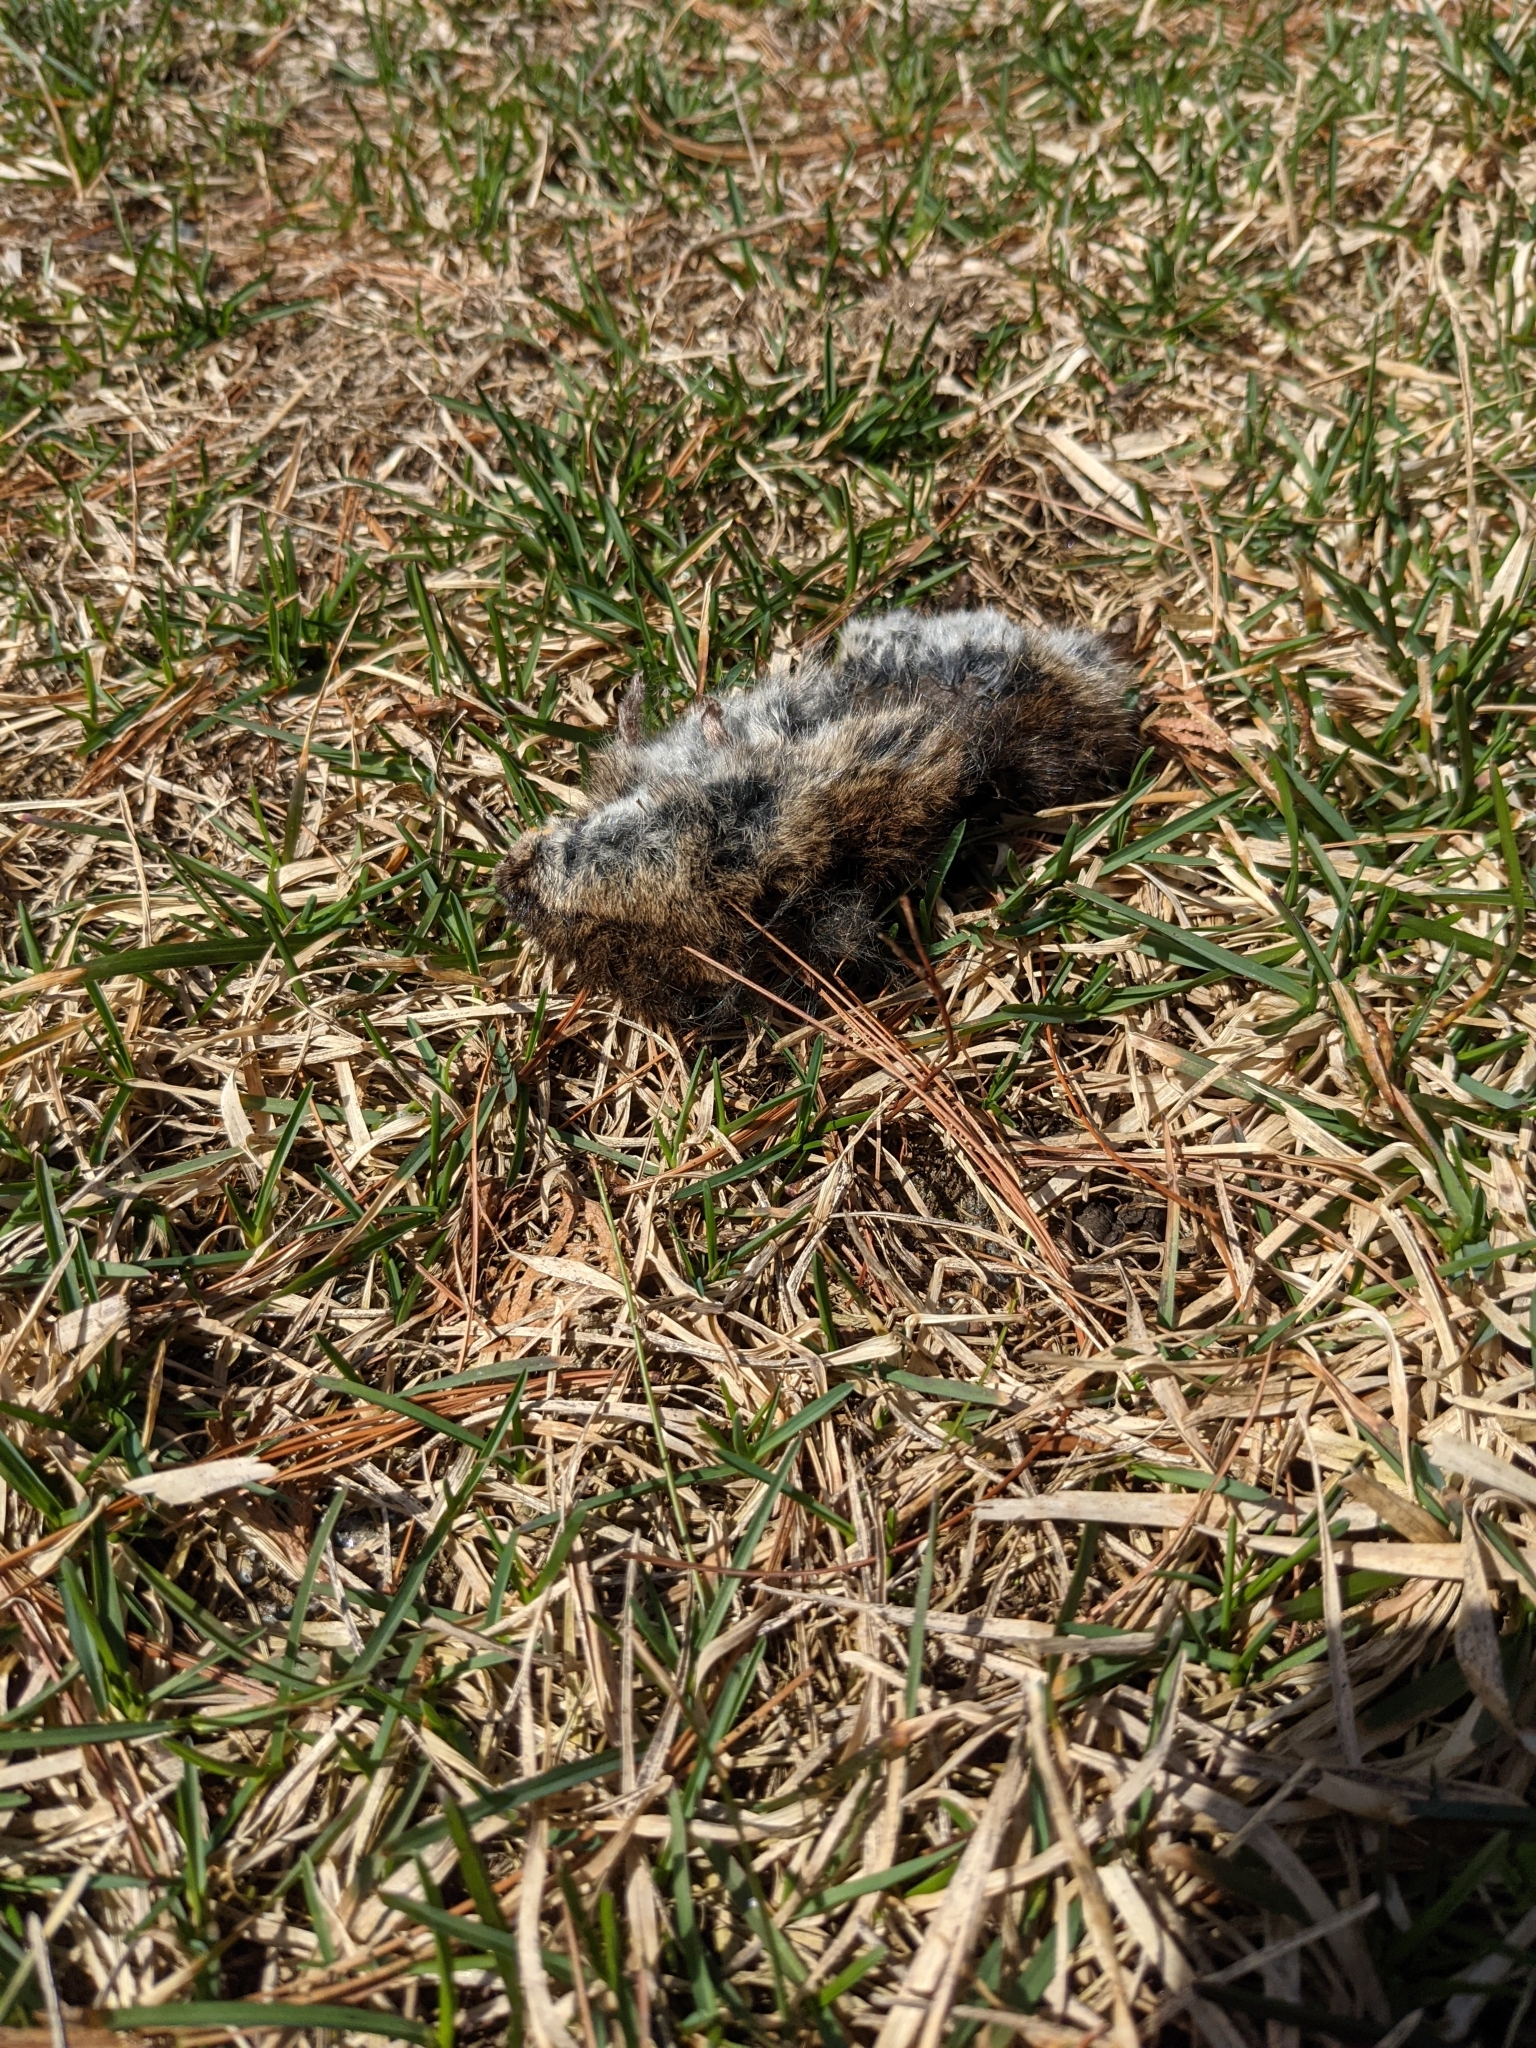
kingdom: Animalia
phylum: Chordata
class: Mammalia
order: Rodentia
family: Cricetidae
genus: Microtus
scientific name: Microtus pennsylvanicus
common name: Meadow vole
